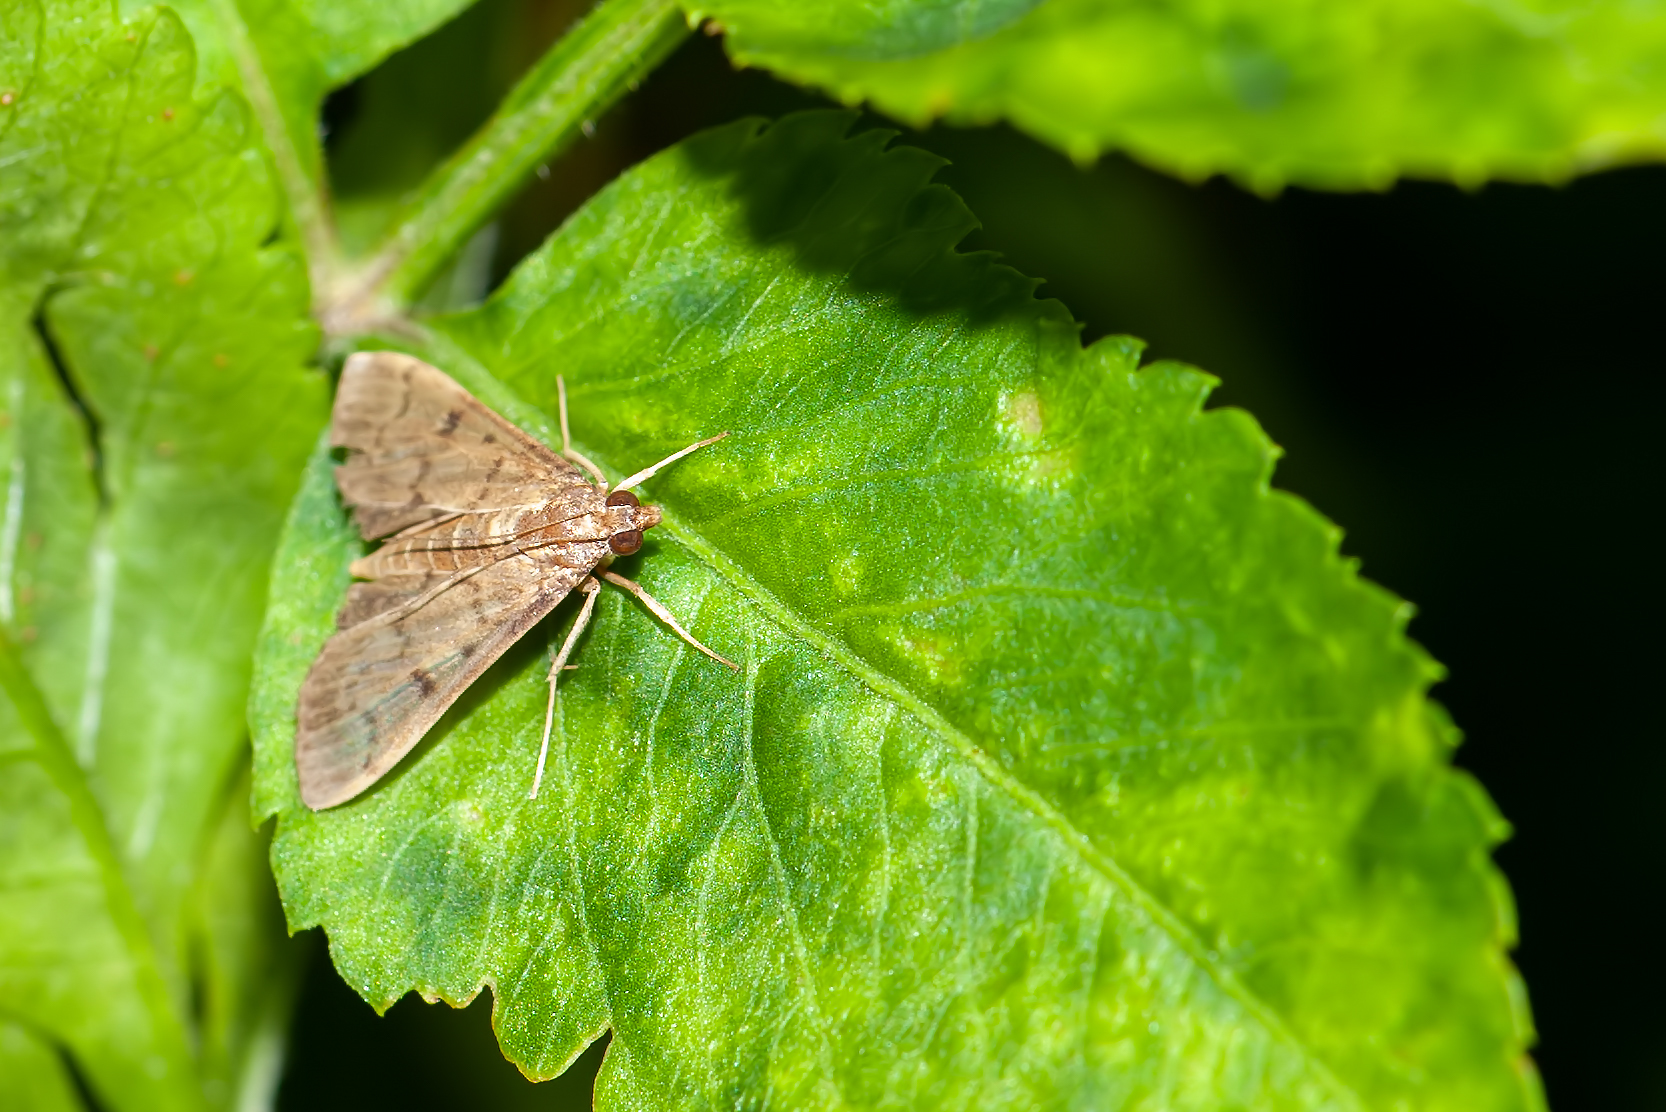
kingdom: Animalia
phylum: Arthropoda
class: Insecta
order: Lepidoptera
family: Crambidae
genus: Herpetogramma
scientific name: Herpetogramma phaeopteralis
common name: Dusky herpetogramma moth
